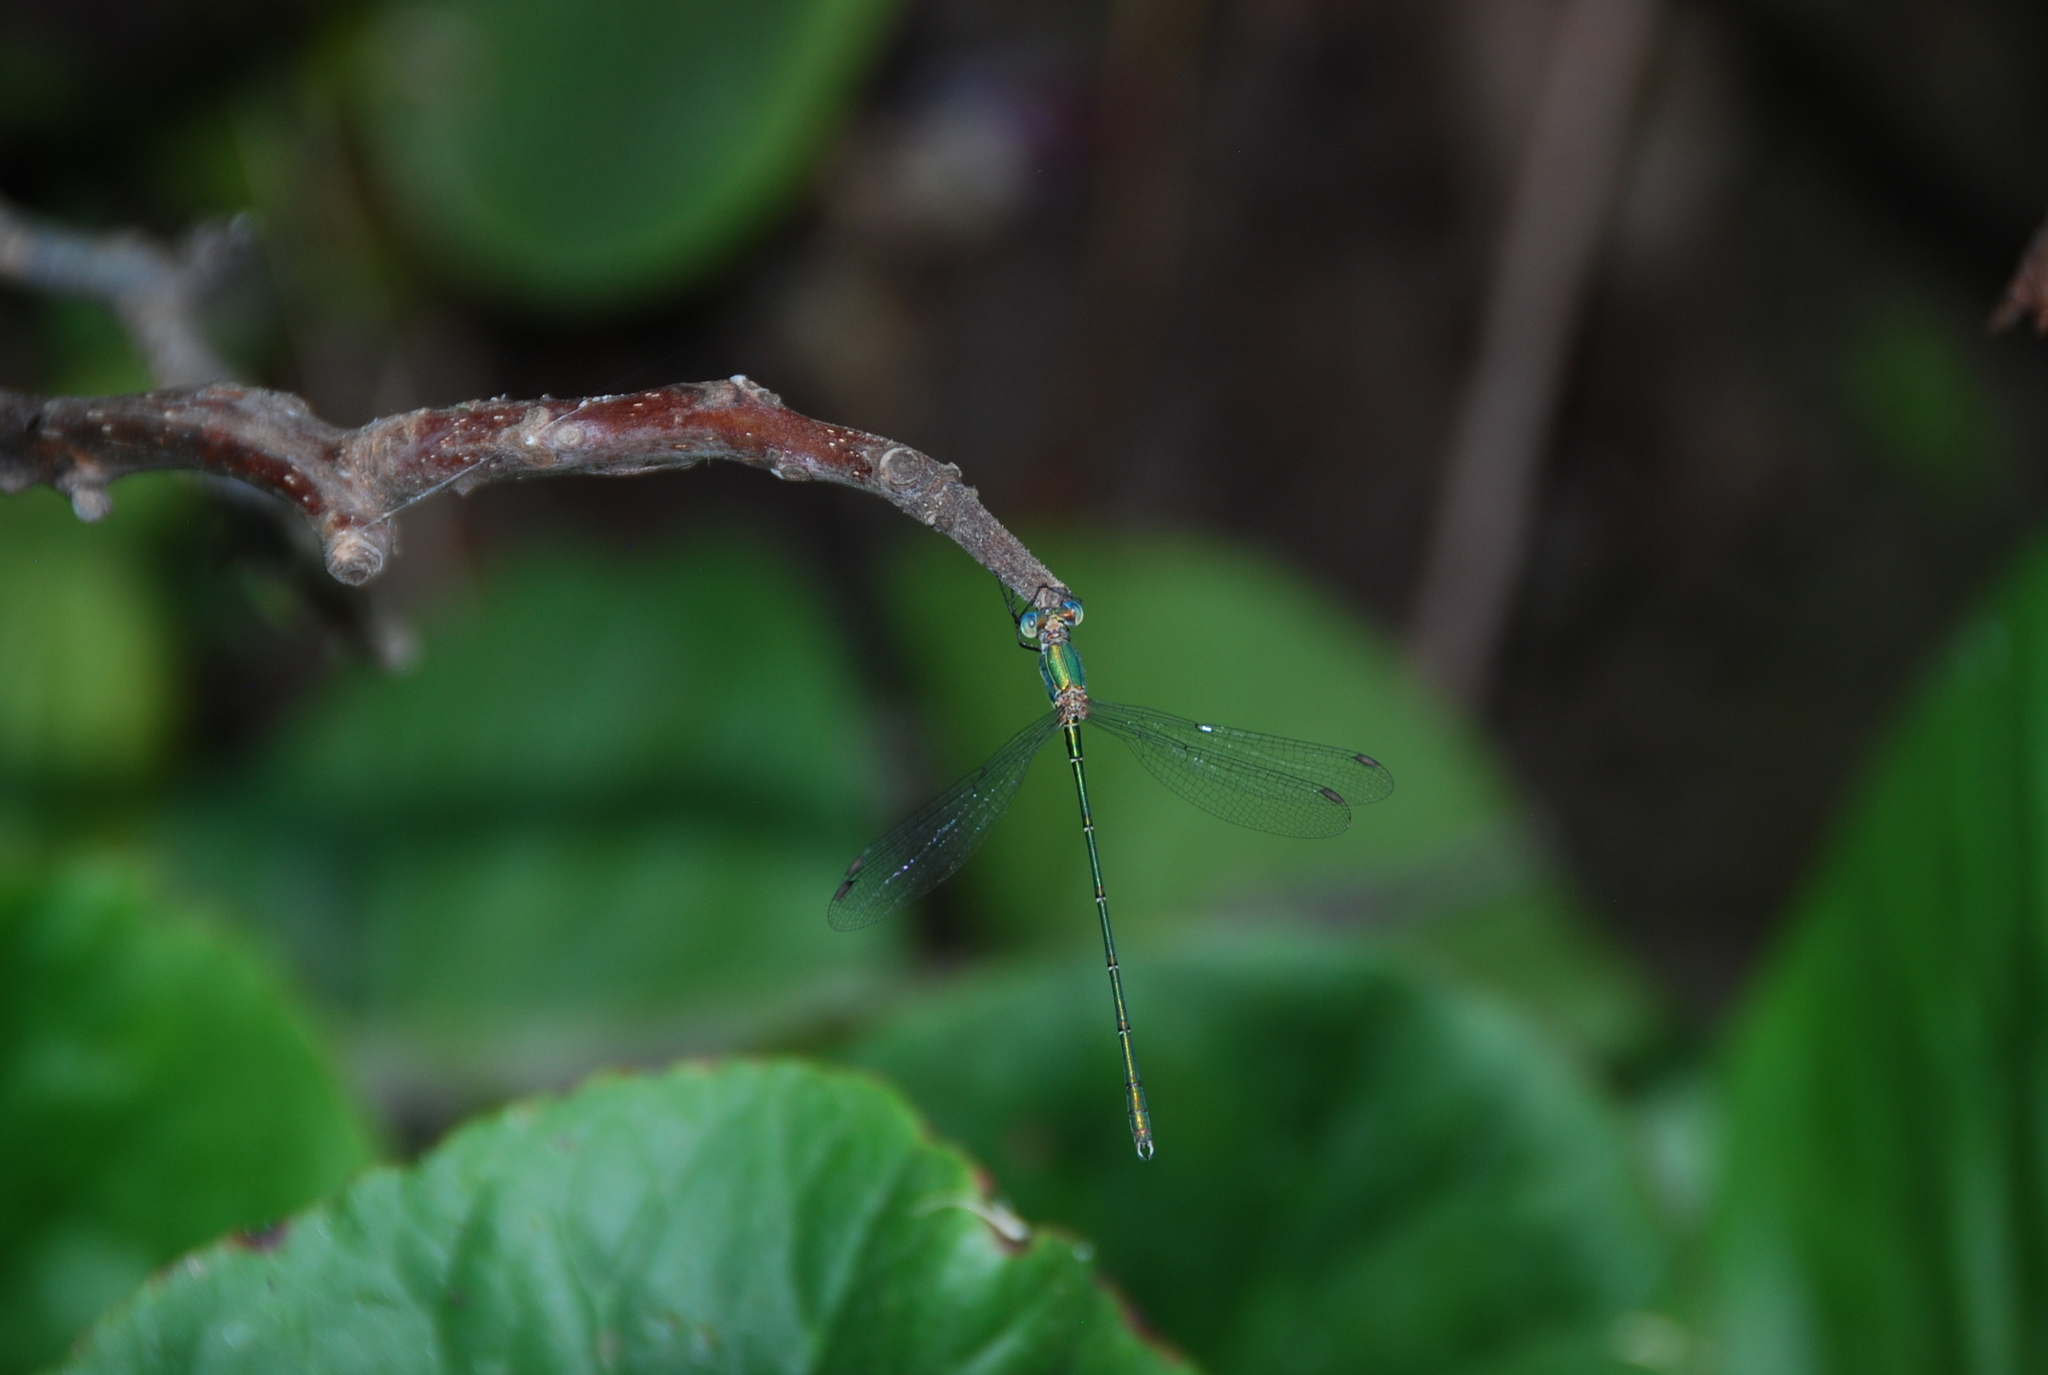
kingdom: Animalia
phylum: Arthropoda
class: Insecta
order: Odonata
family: Lestidae
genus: Chalcolestes
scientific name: Chalcolestes viridis
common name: Green emerald damselfly
